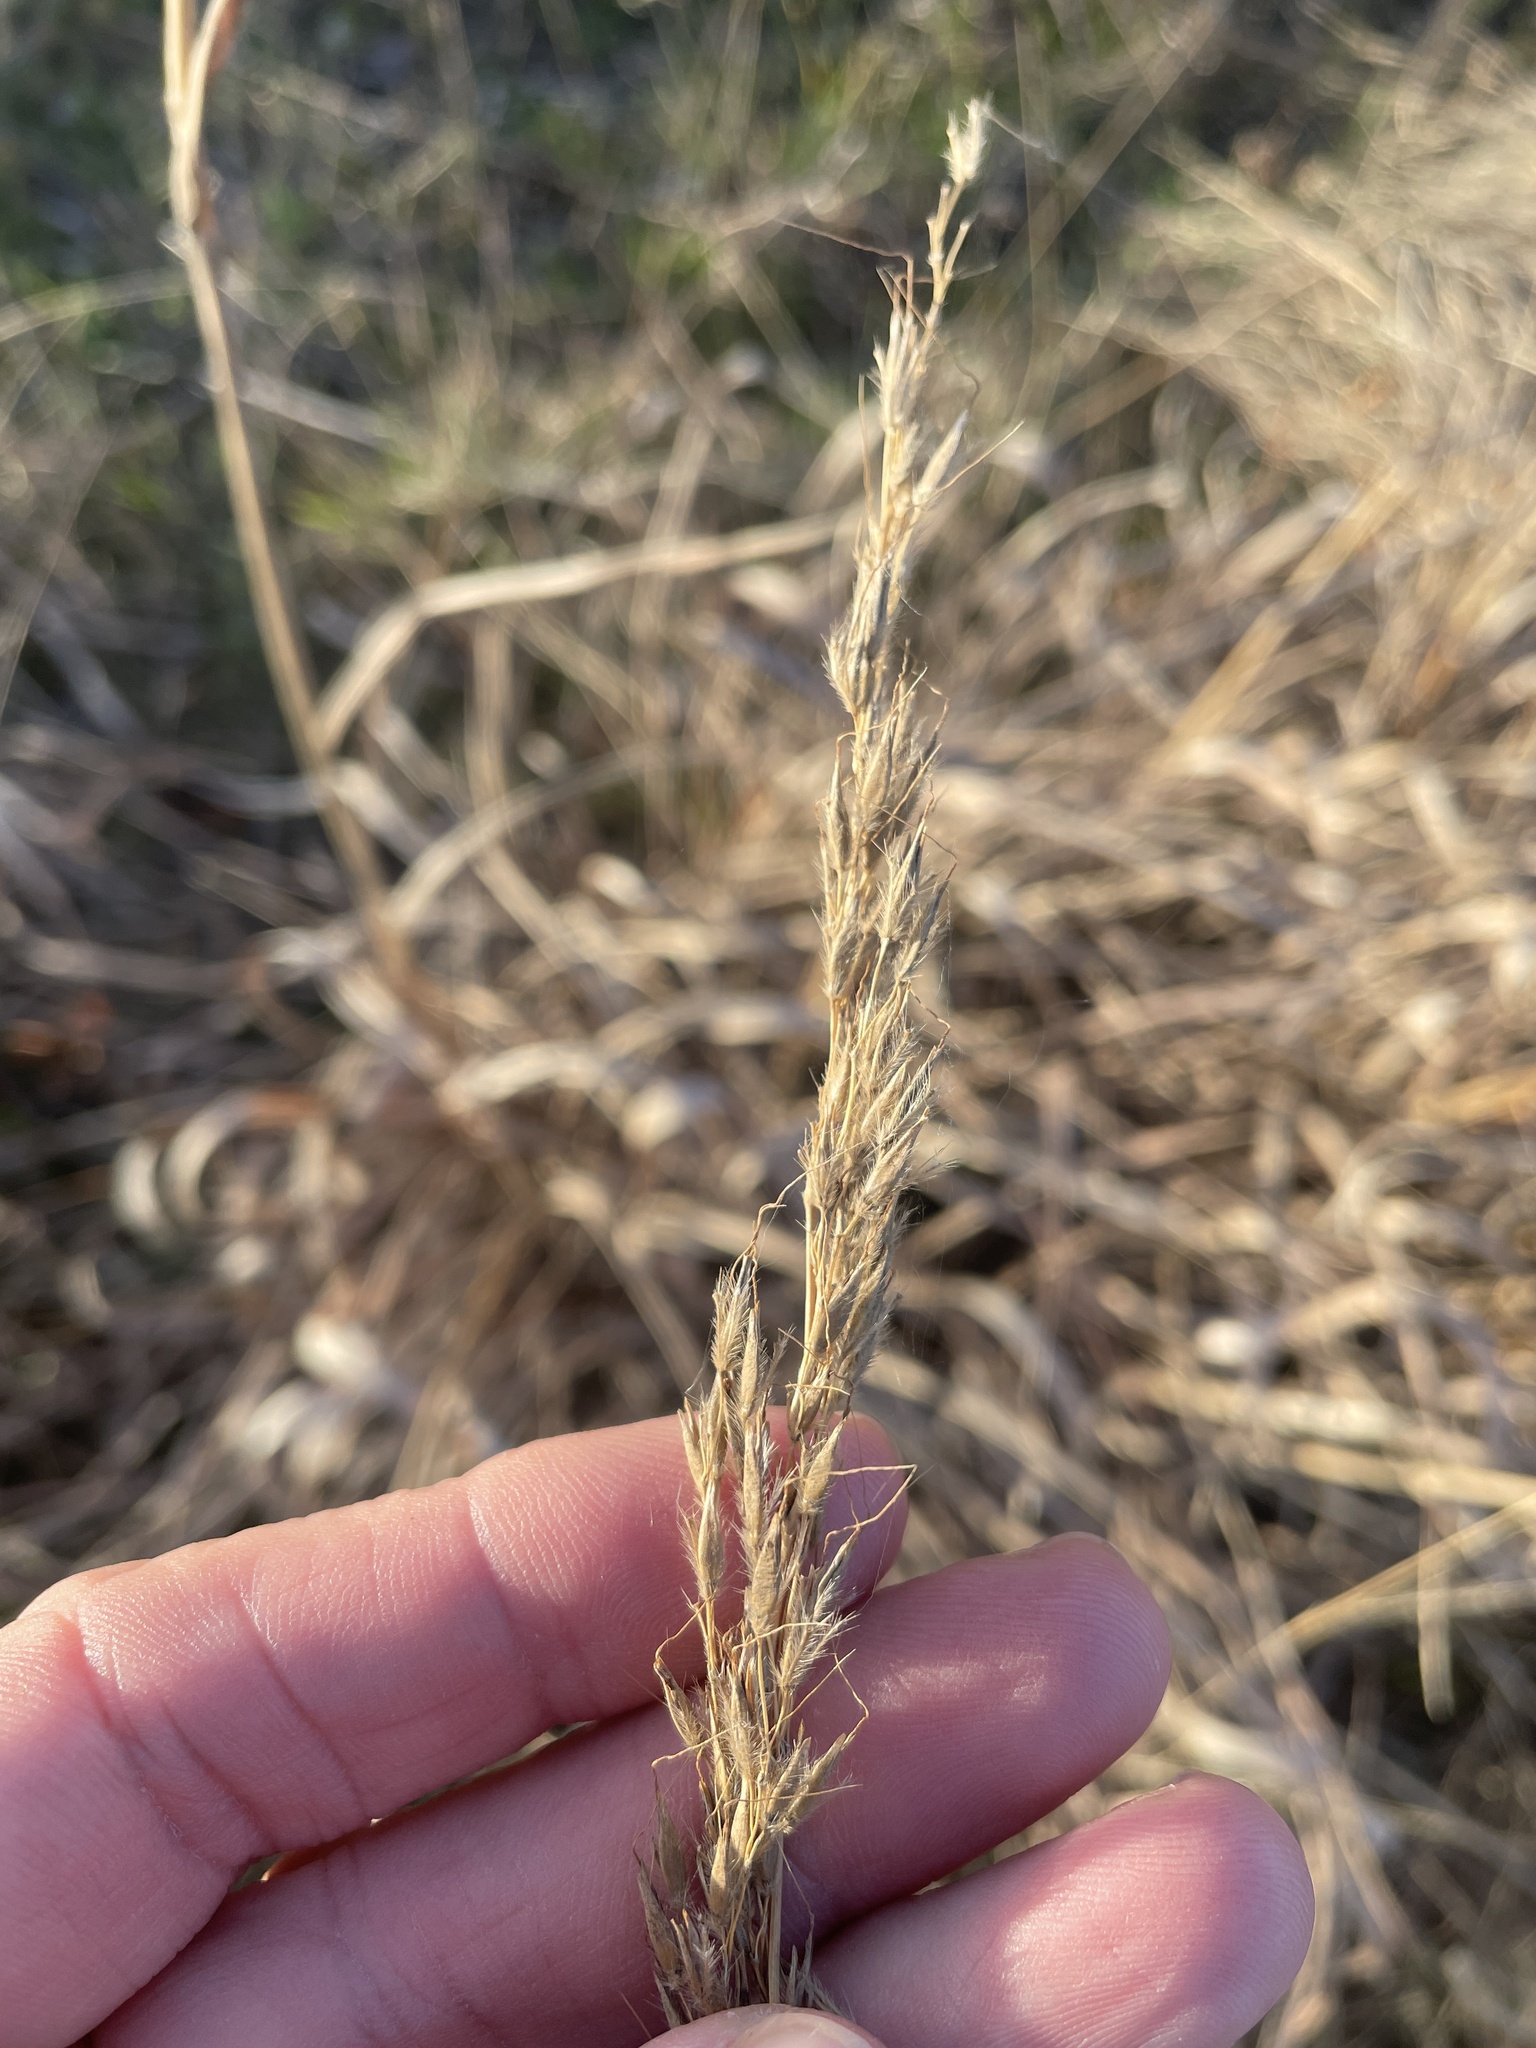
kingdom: Plantae
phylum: Tracheophyta
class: Liliopsida
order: Poales
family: Poaceae
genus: Sorghastrum
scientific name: Sorghastrum nutans
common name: Indian grass
